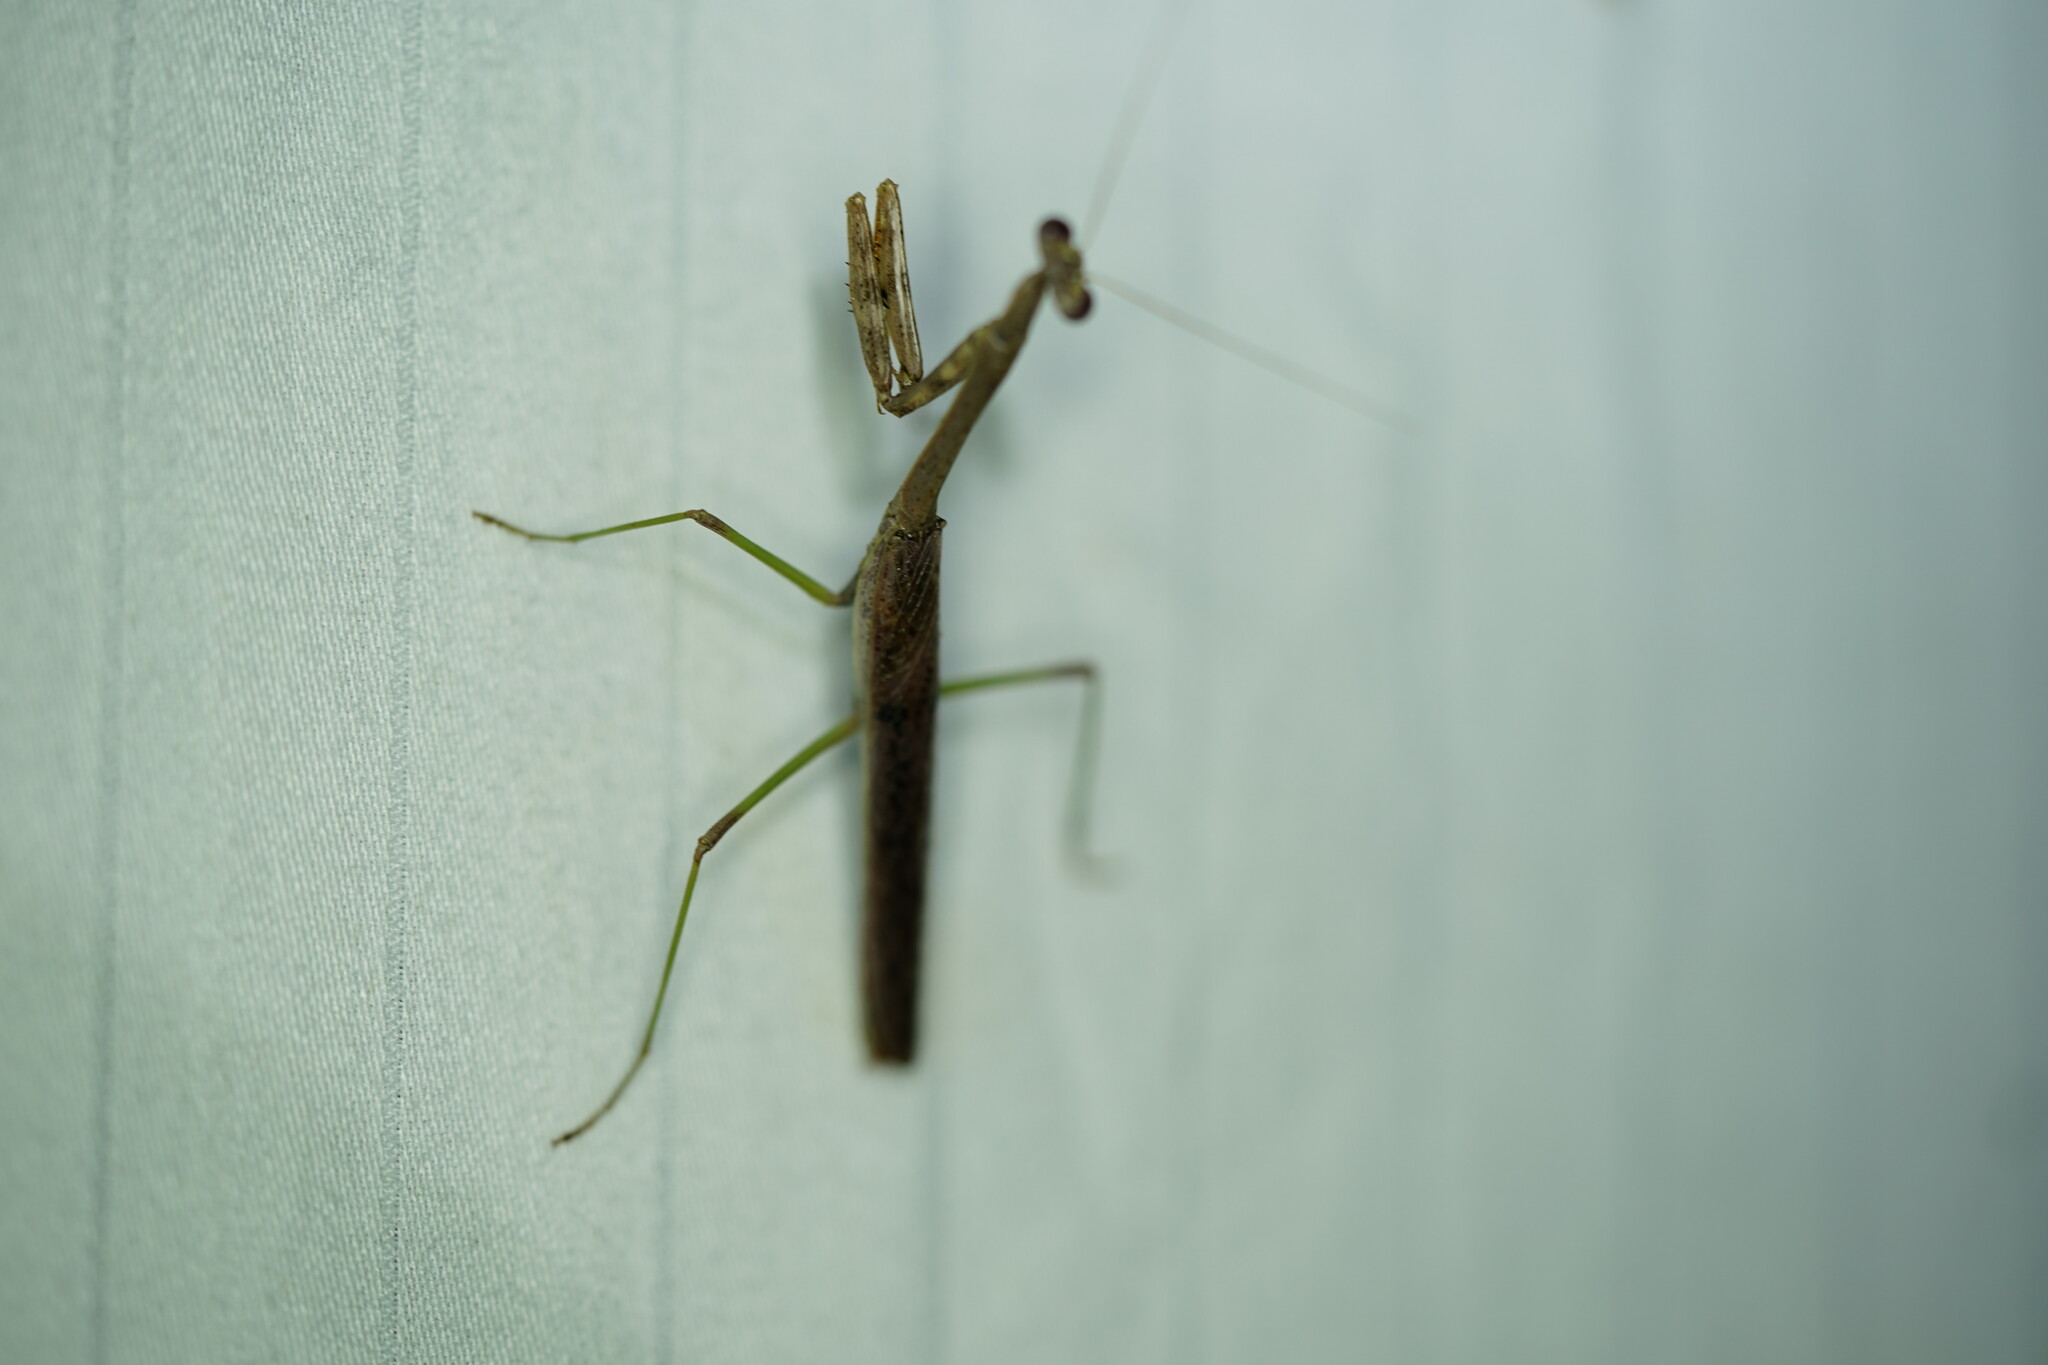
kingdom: Animalia
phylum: Arthropoda
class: Insecta
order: Mantodea
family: Mantidae
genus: Stagmomantis
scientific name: Stagmomantis carolina
